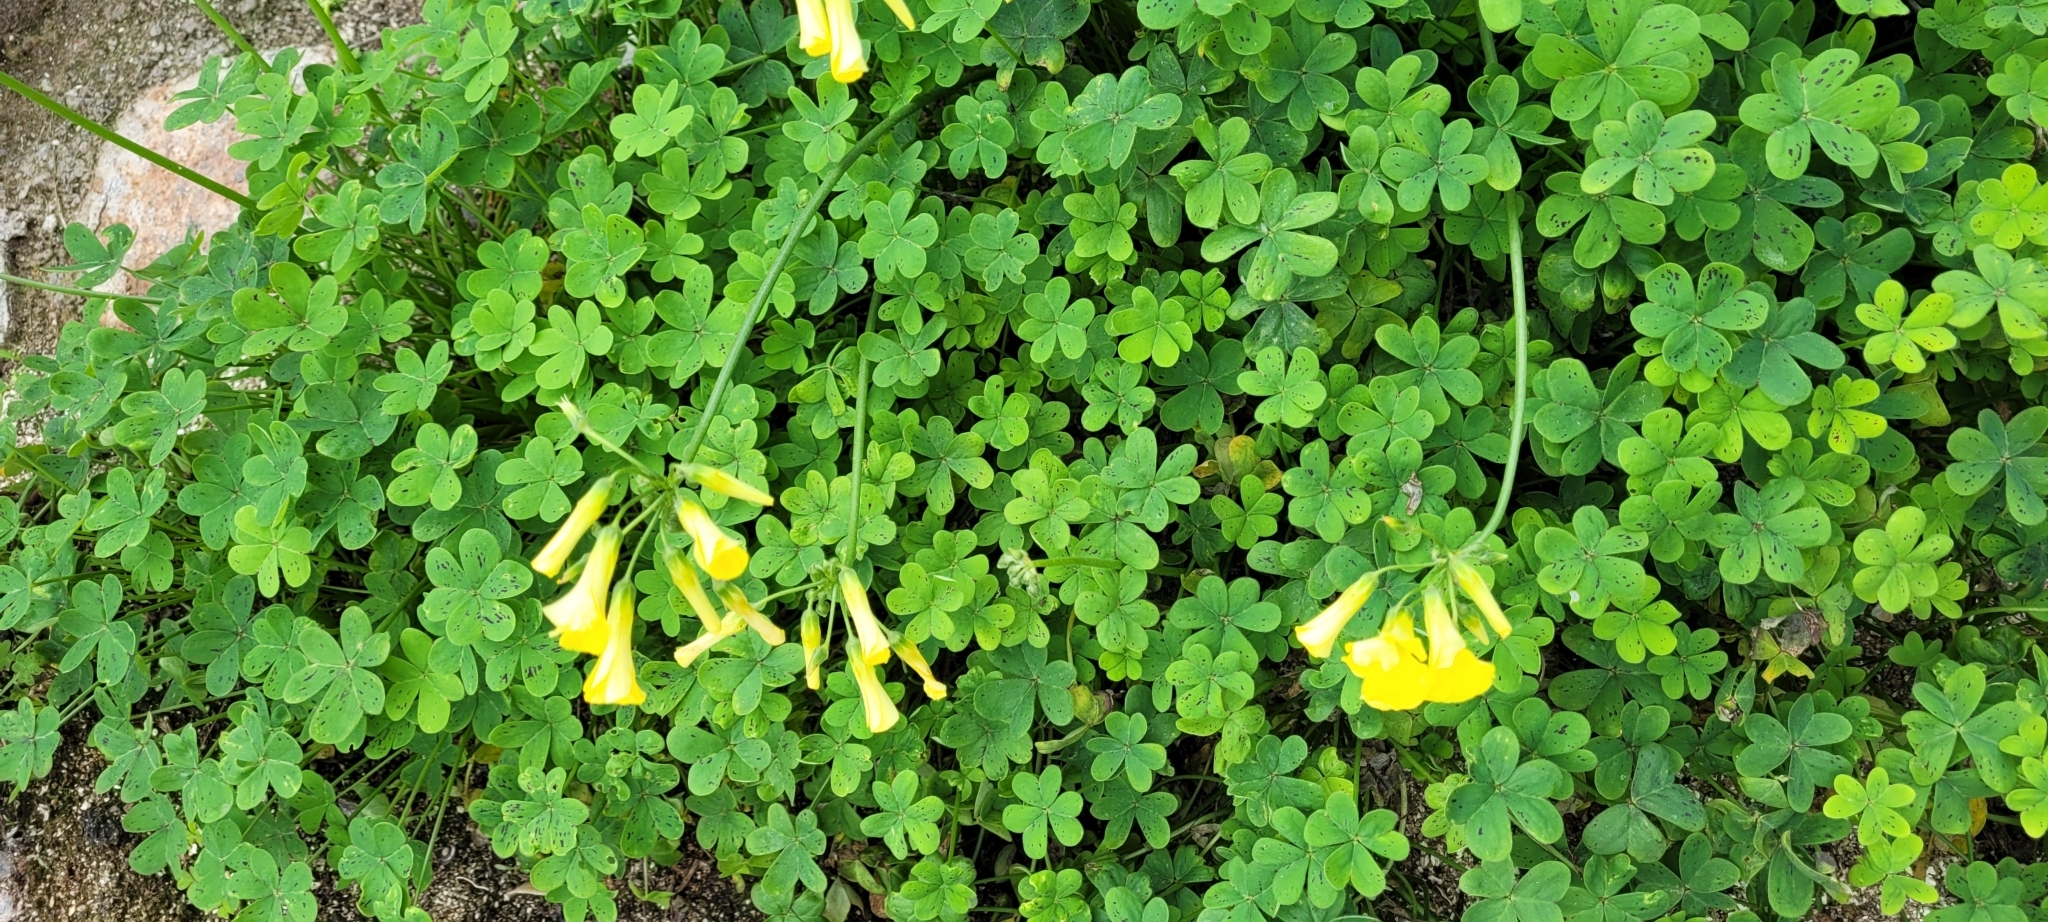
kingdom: Plantae
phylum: Tracheophyta
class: Magnoliopsida
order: Oxalidales
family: Oxalidaceae
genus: Oxalis
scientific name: Oxalis pes-caprae
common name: Bermuda-buttercup
